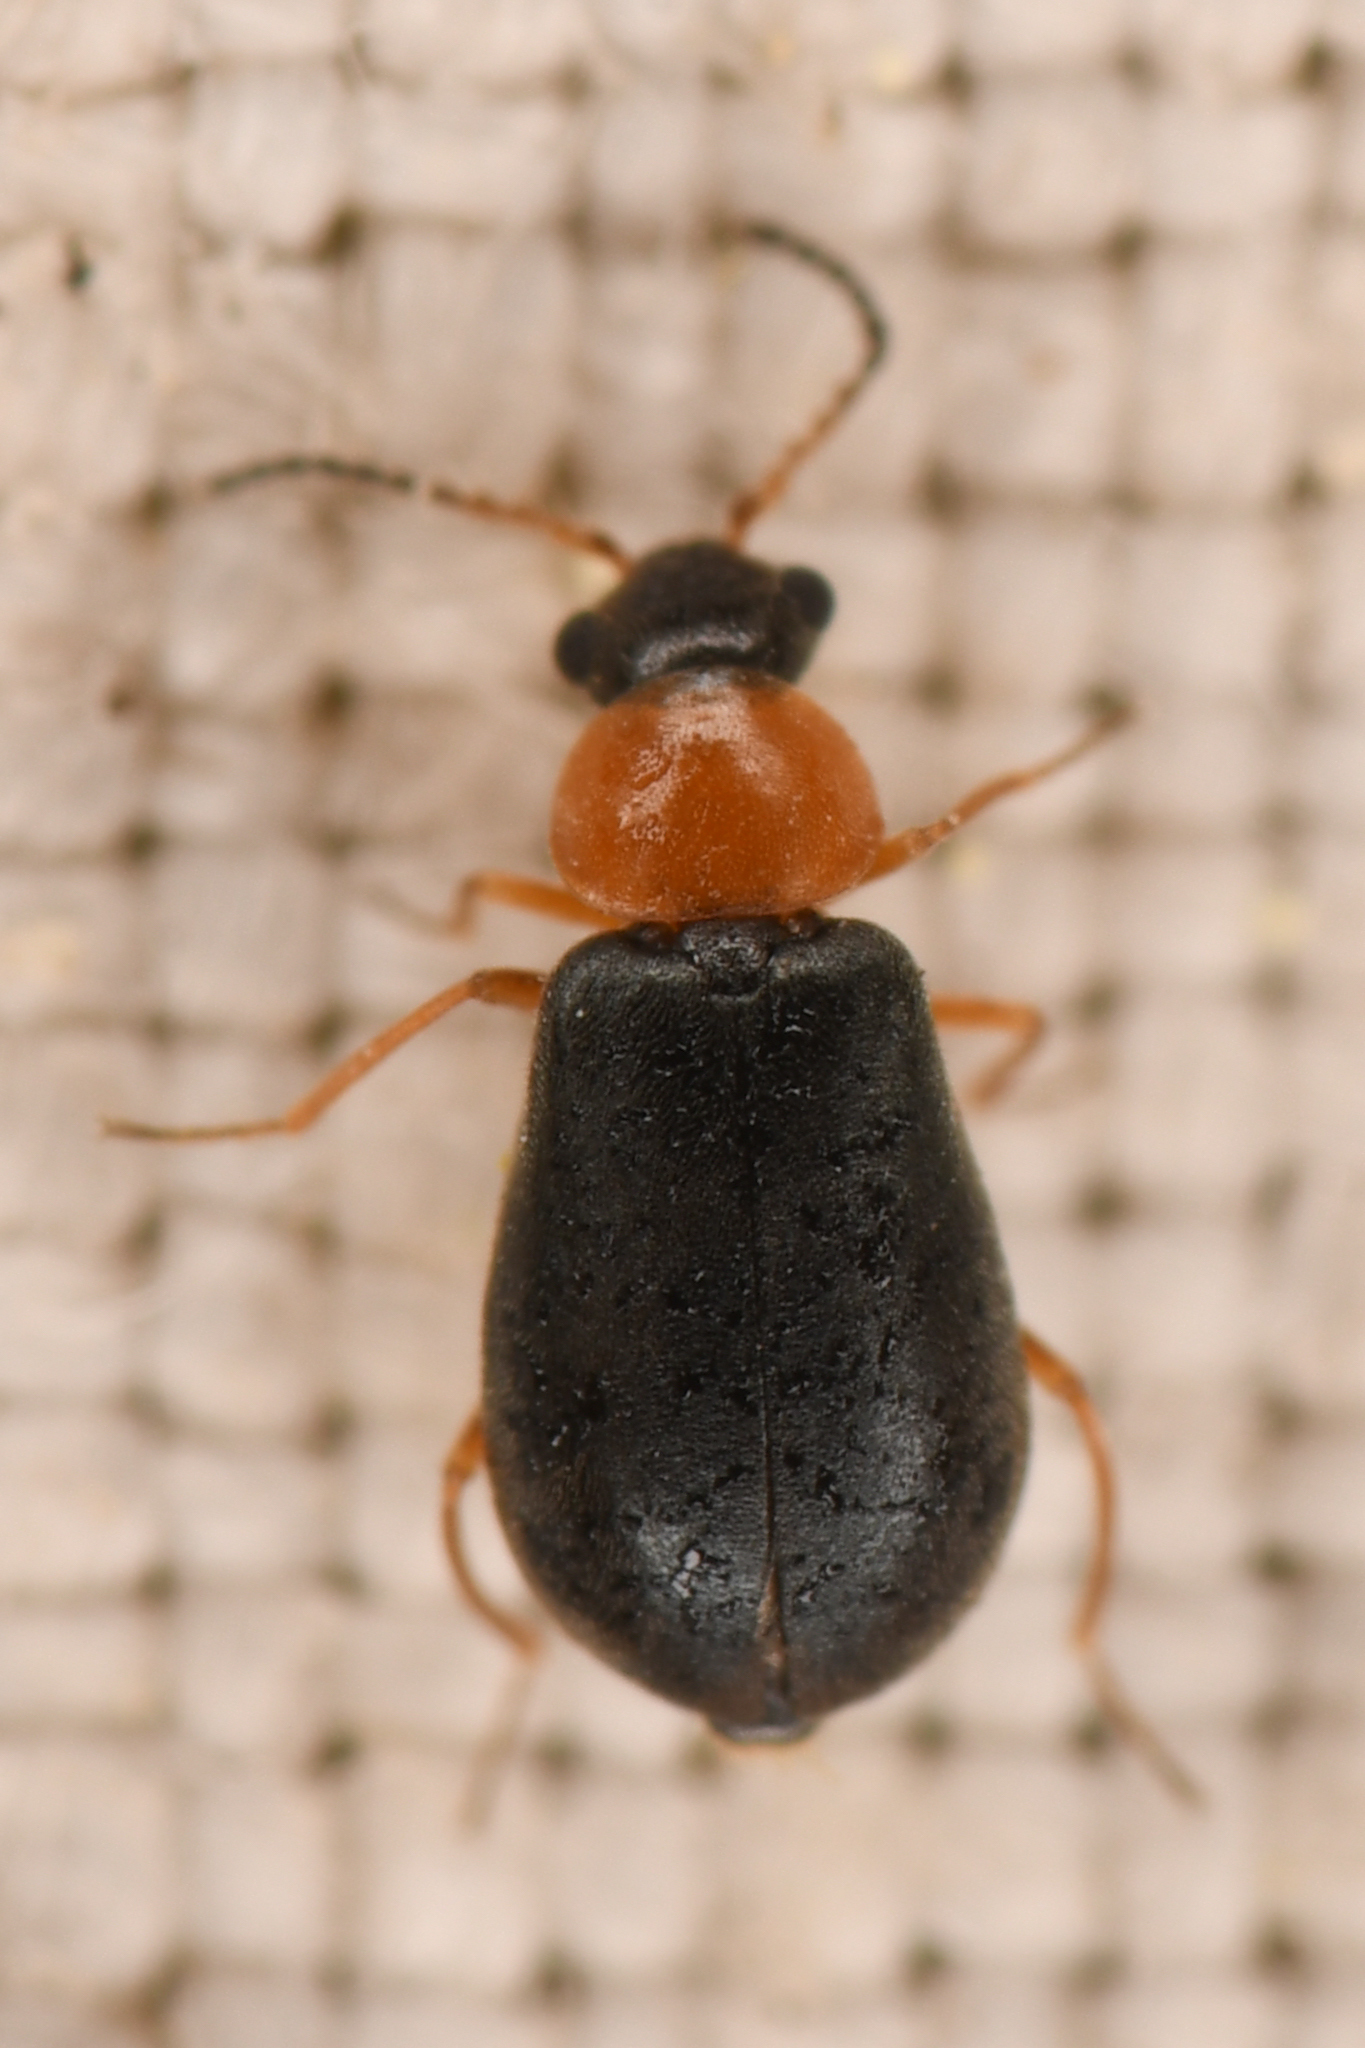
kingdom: Animalia
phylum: Arthropoda
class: Insecta
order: Coleoptera
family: Melyridae
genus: Hypebaeus
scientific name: Hypebaeus bicolor
